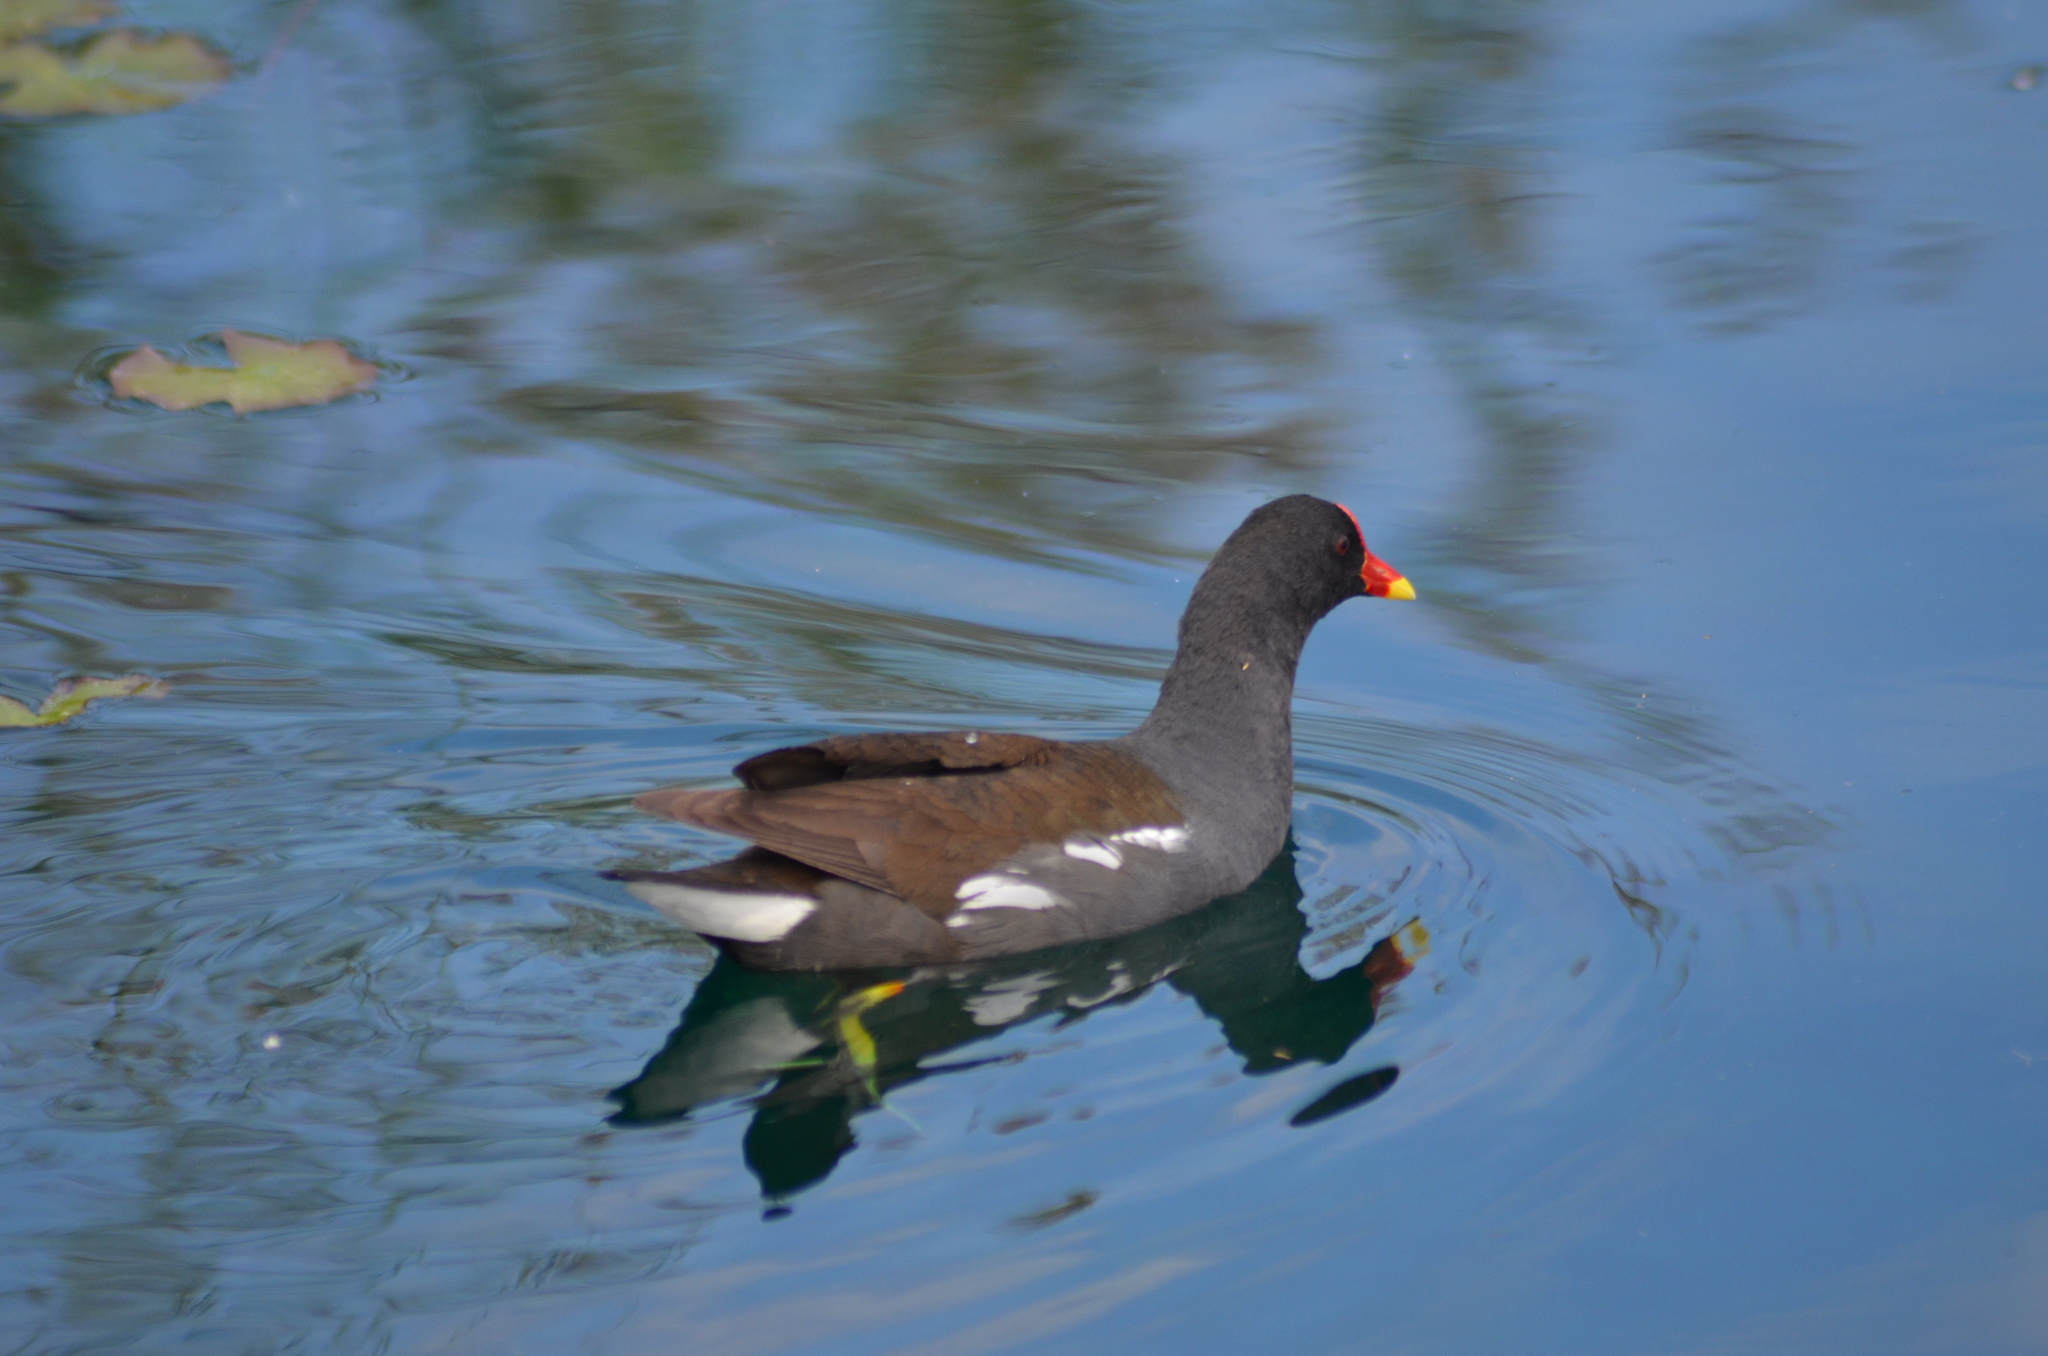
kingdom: Animalia
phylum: Chordata
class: Aves
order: Gruiformes
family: Rallidae
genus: Gallinula
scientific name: Gallinula chloropus
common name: Common moorhen
